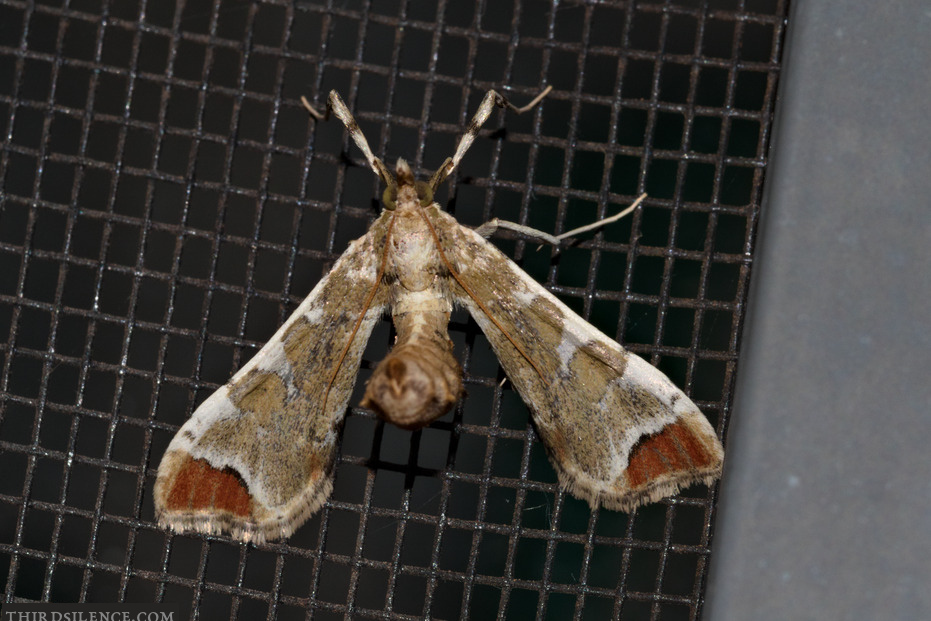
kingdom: Animalia
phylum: Arthropoda
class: Insecta
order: Lepidoptera
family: Crambidae
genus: Sceliodes
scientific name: Sceliodes cordalis
